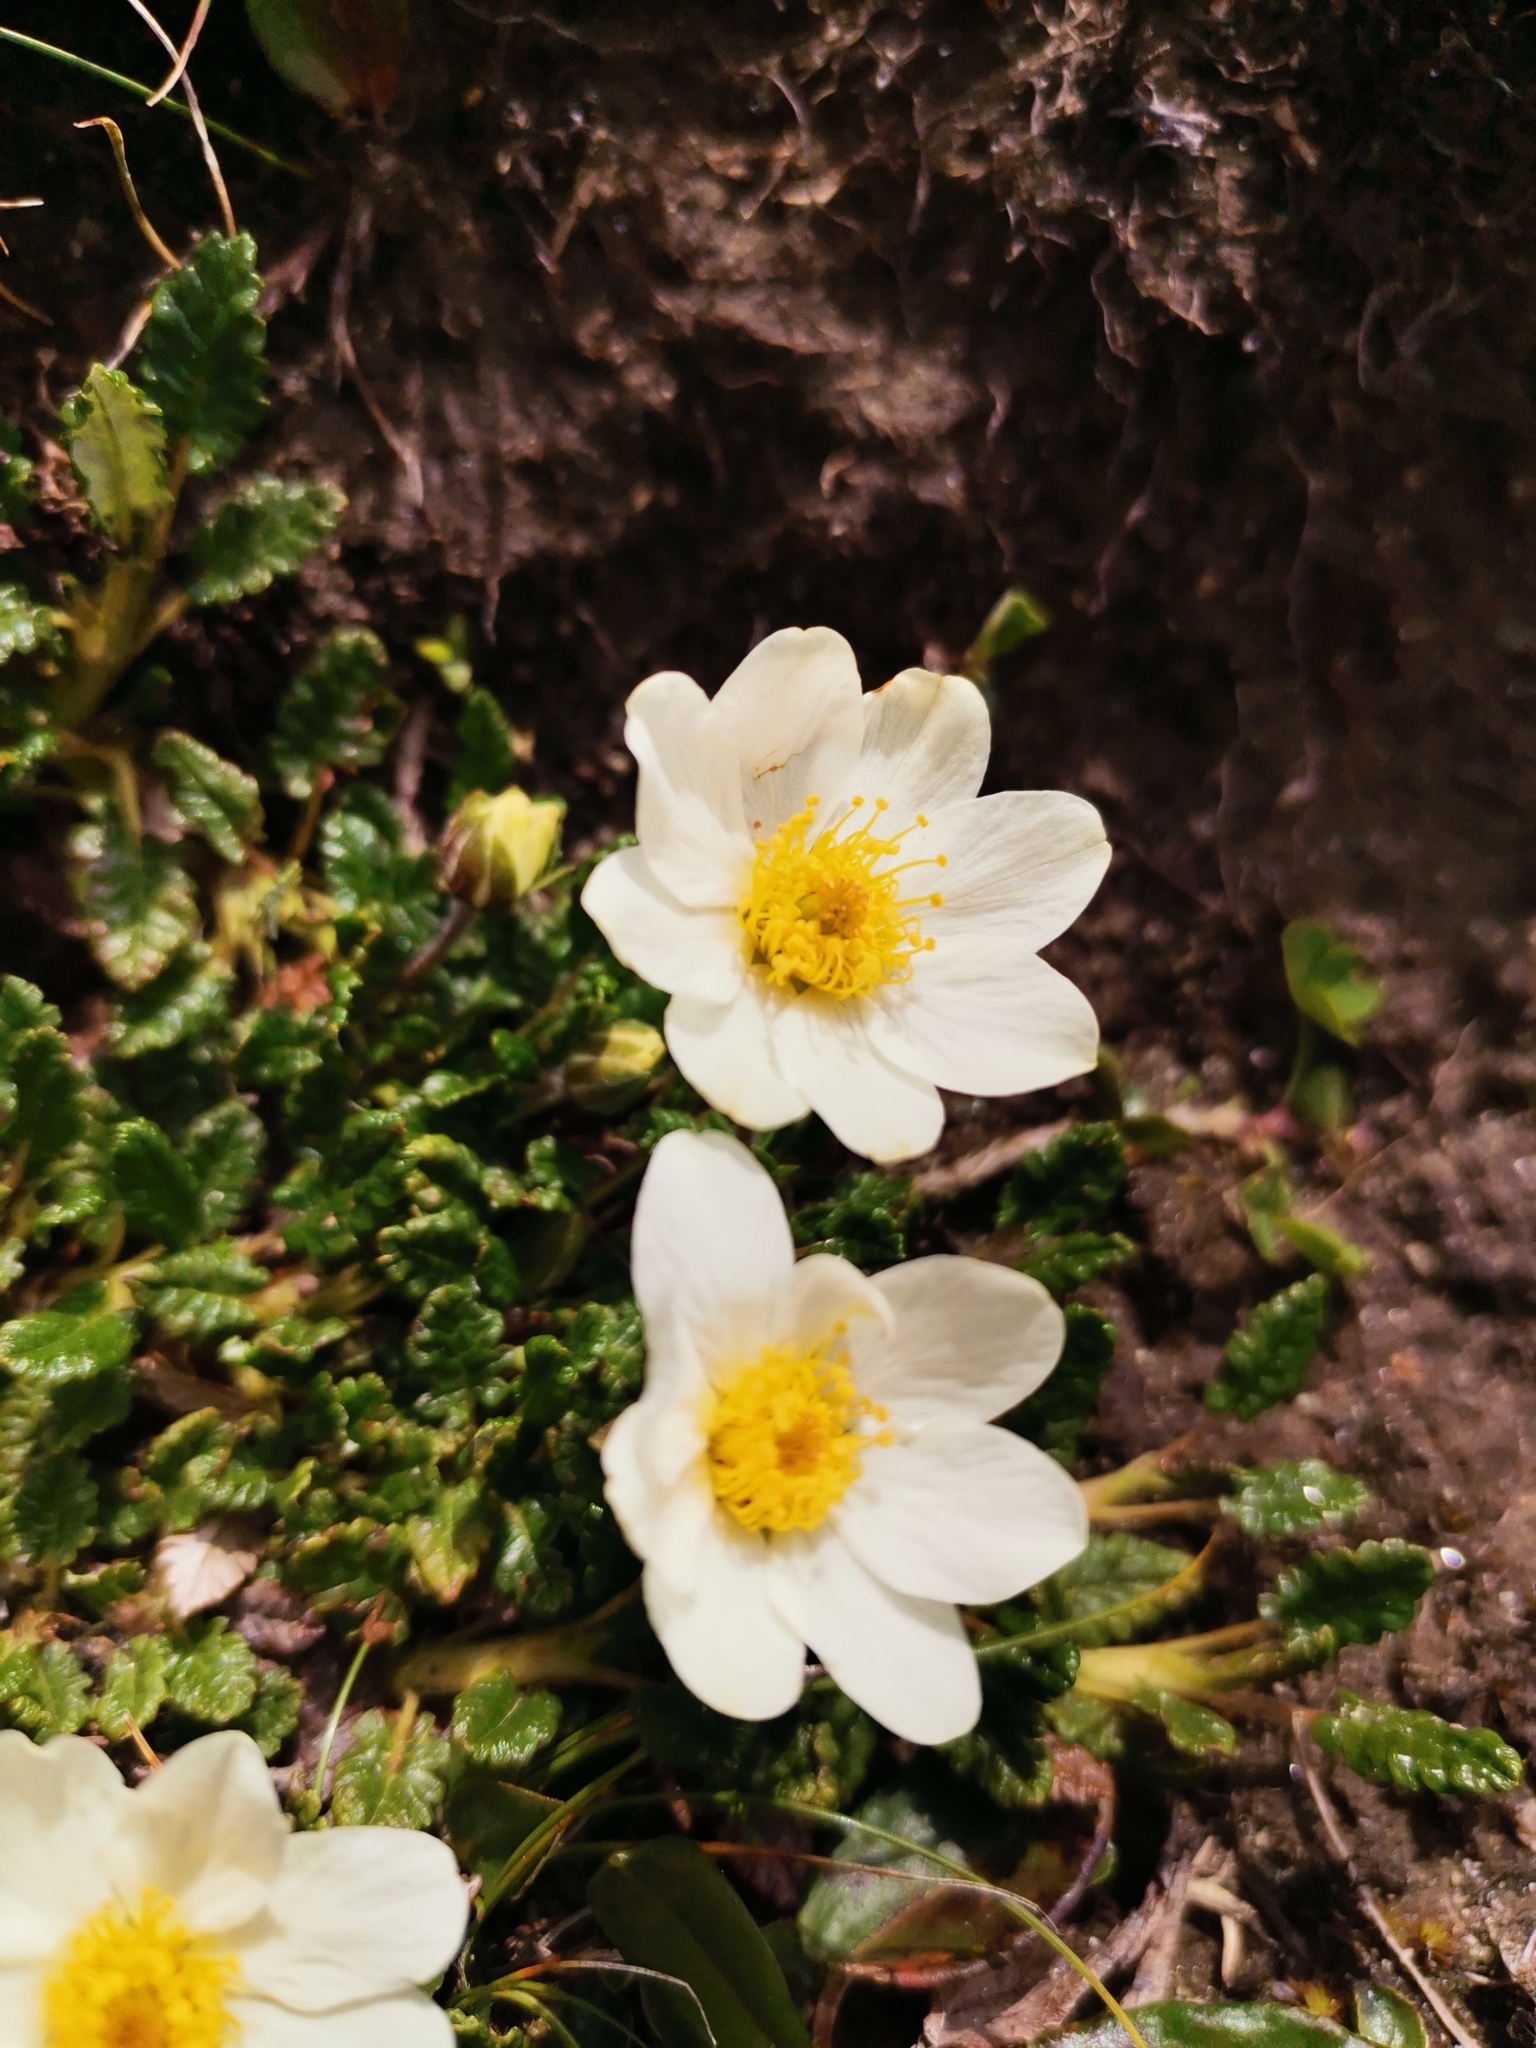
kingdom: Plantae
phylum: Tracheophyta
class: Magnoliopsida
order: Rosales
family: Rosaceae
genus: Dryas
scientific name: Dryas octopetala
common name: Eight-petal mountain-avens
